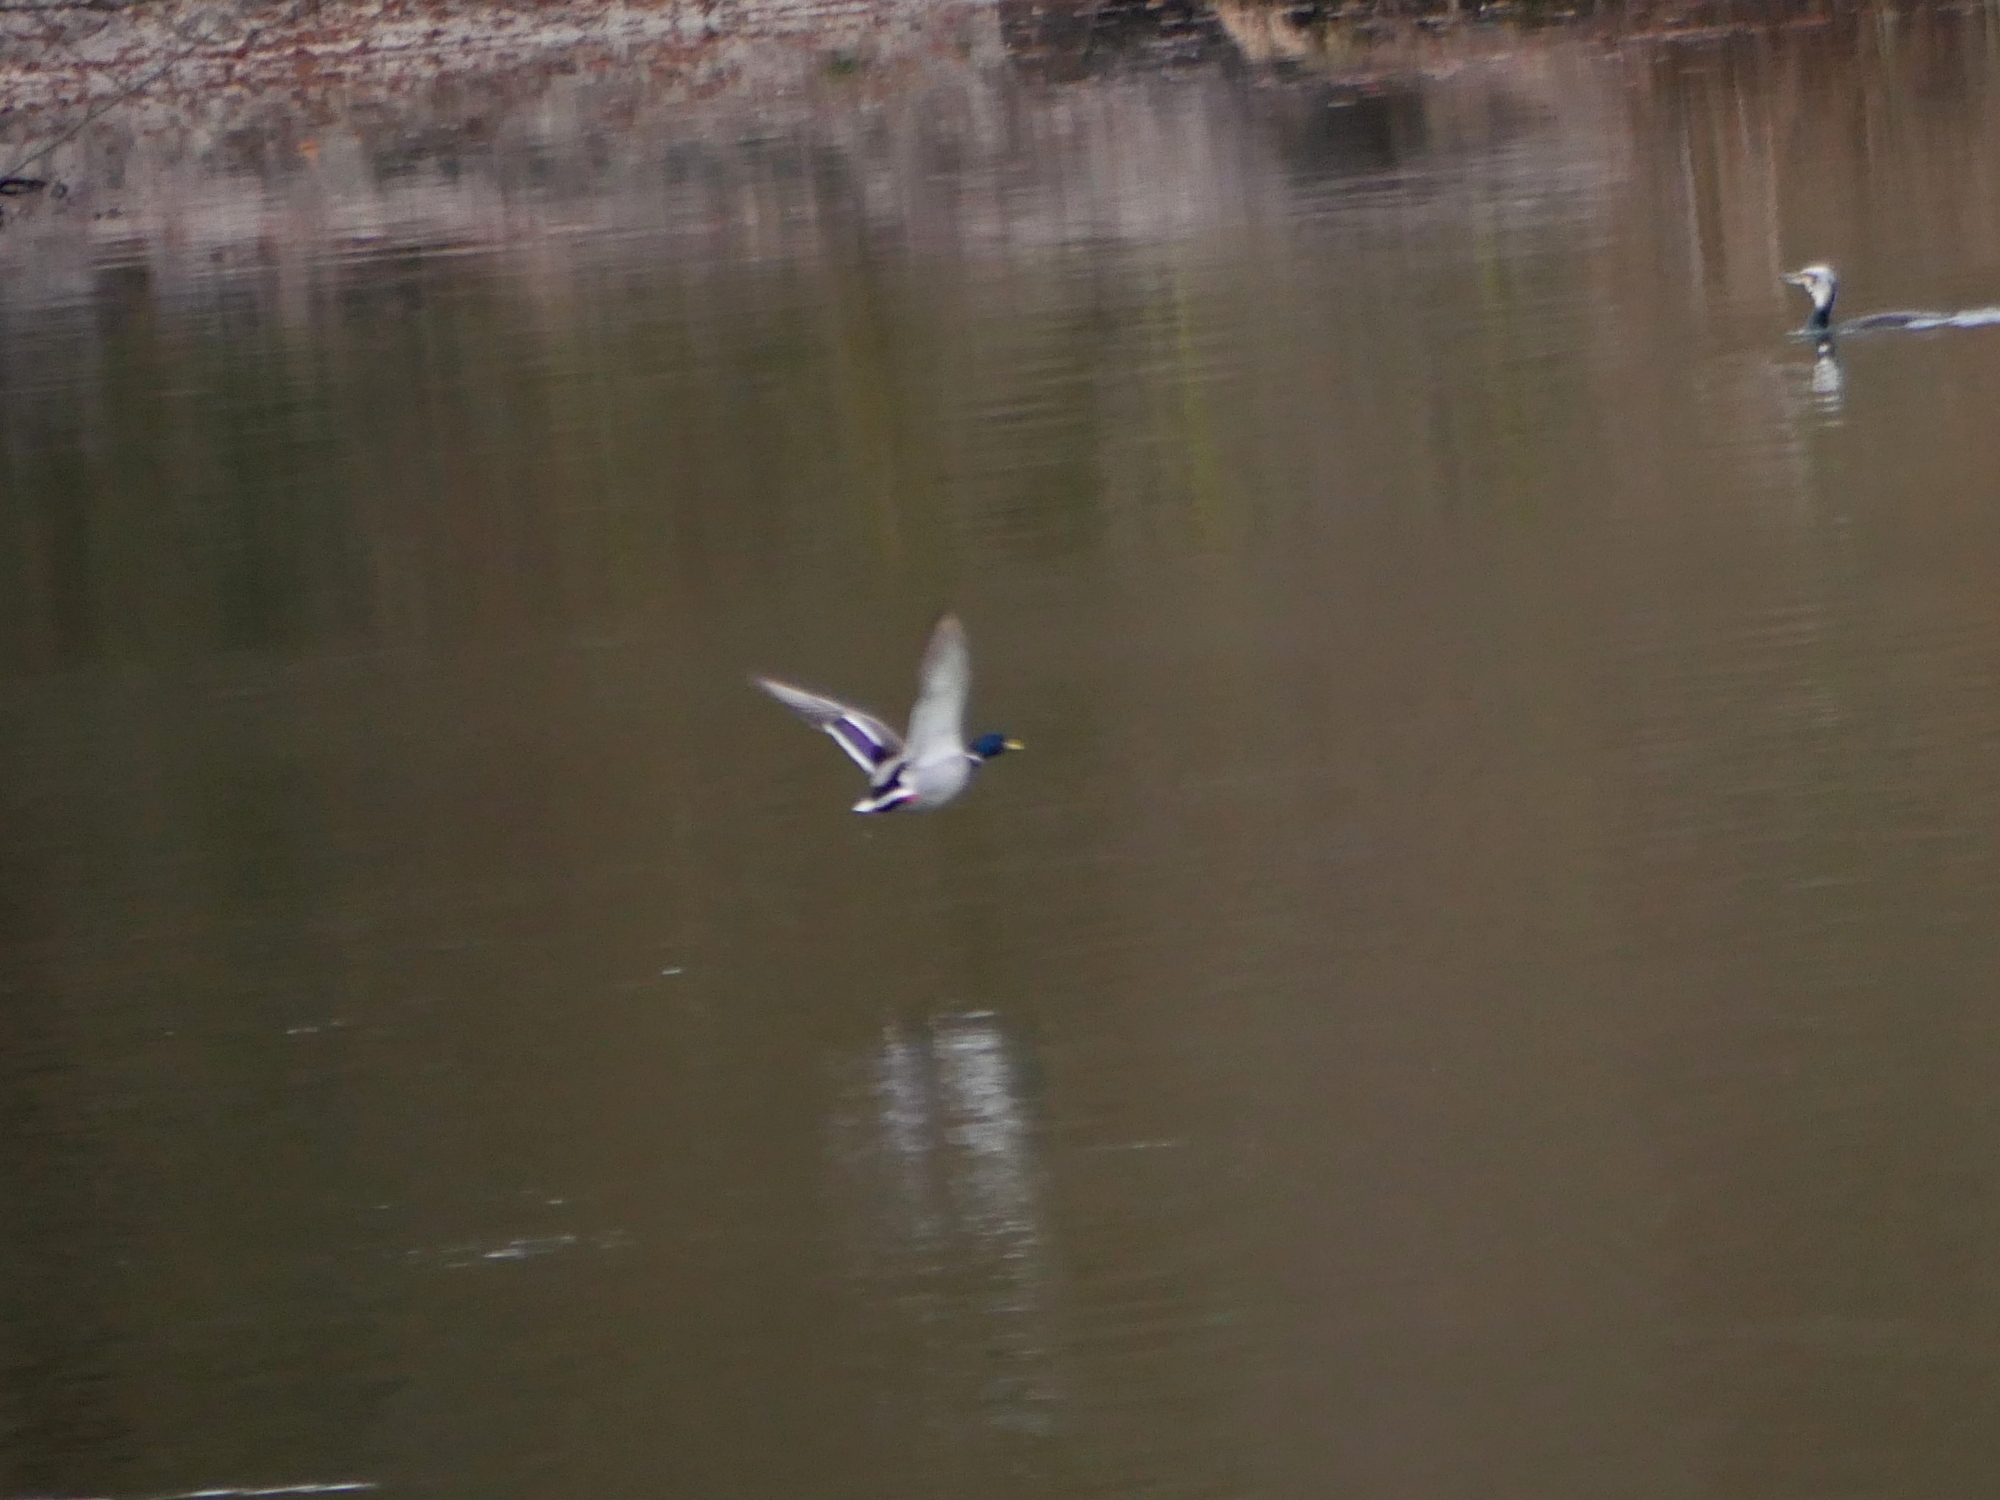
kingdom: Animalia
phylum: Chordata
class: Aves
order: Anseriformes
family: Anatidae
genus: Anas
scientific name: Anas platyrhynchos
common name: Mallard
